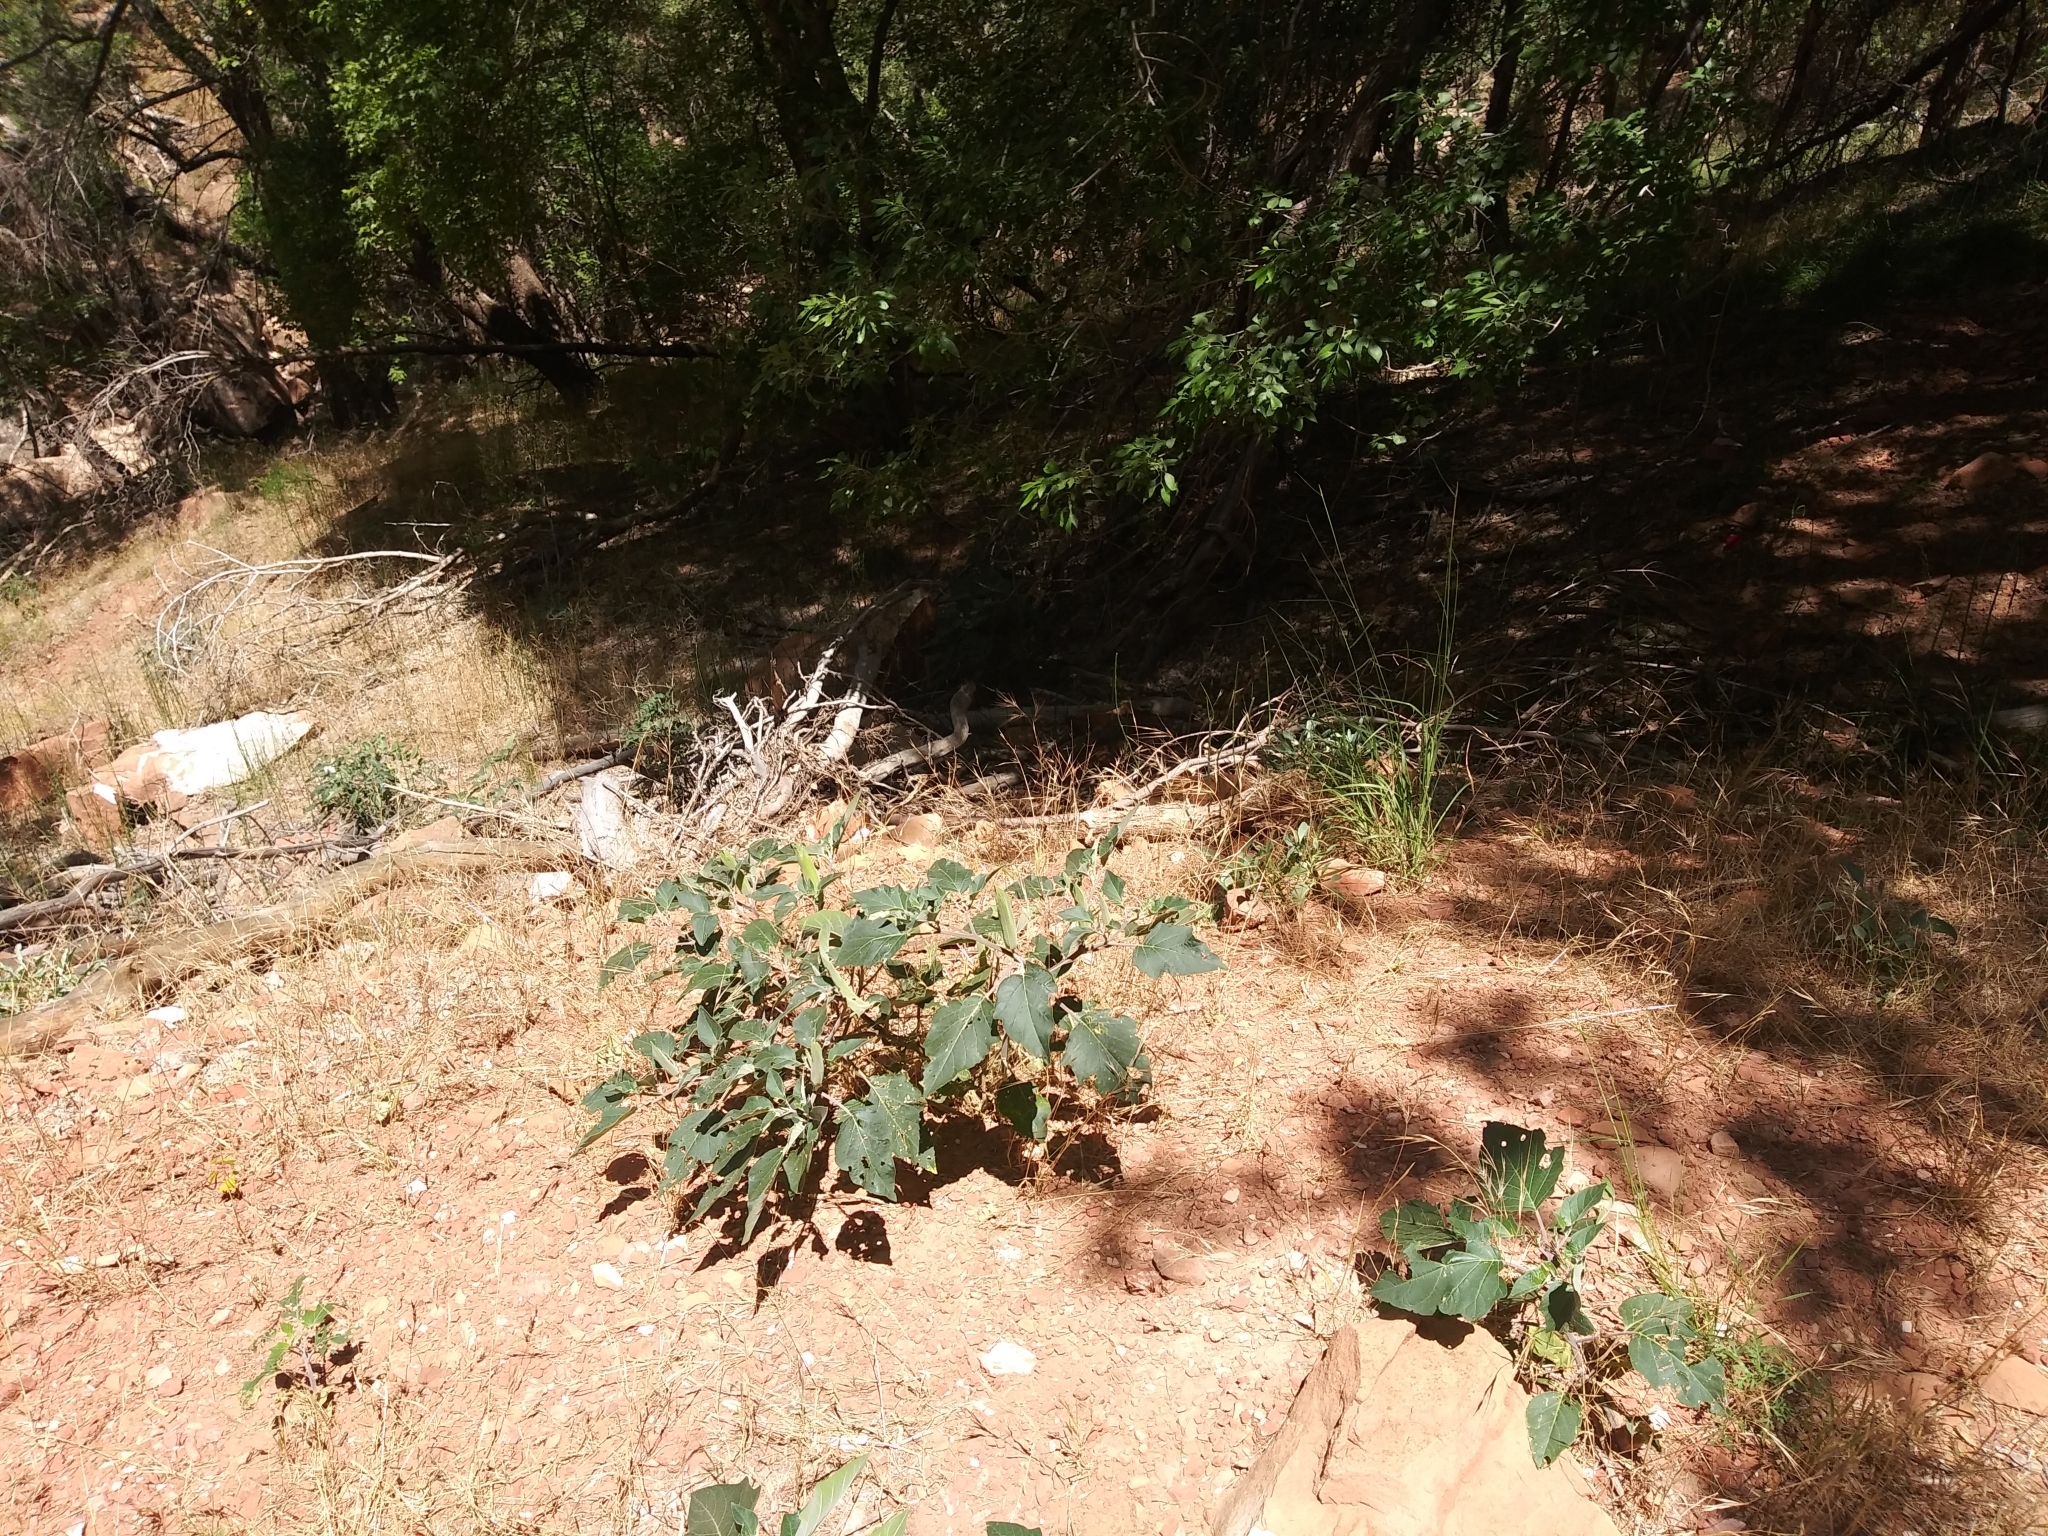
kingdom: Plantae
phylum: Tracheophyta
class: Magnoliopsida
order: Solanales
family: Solanaceae
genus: Datura
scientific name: Datura wrightii
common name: Sacred thorn-apple
